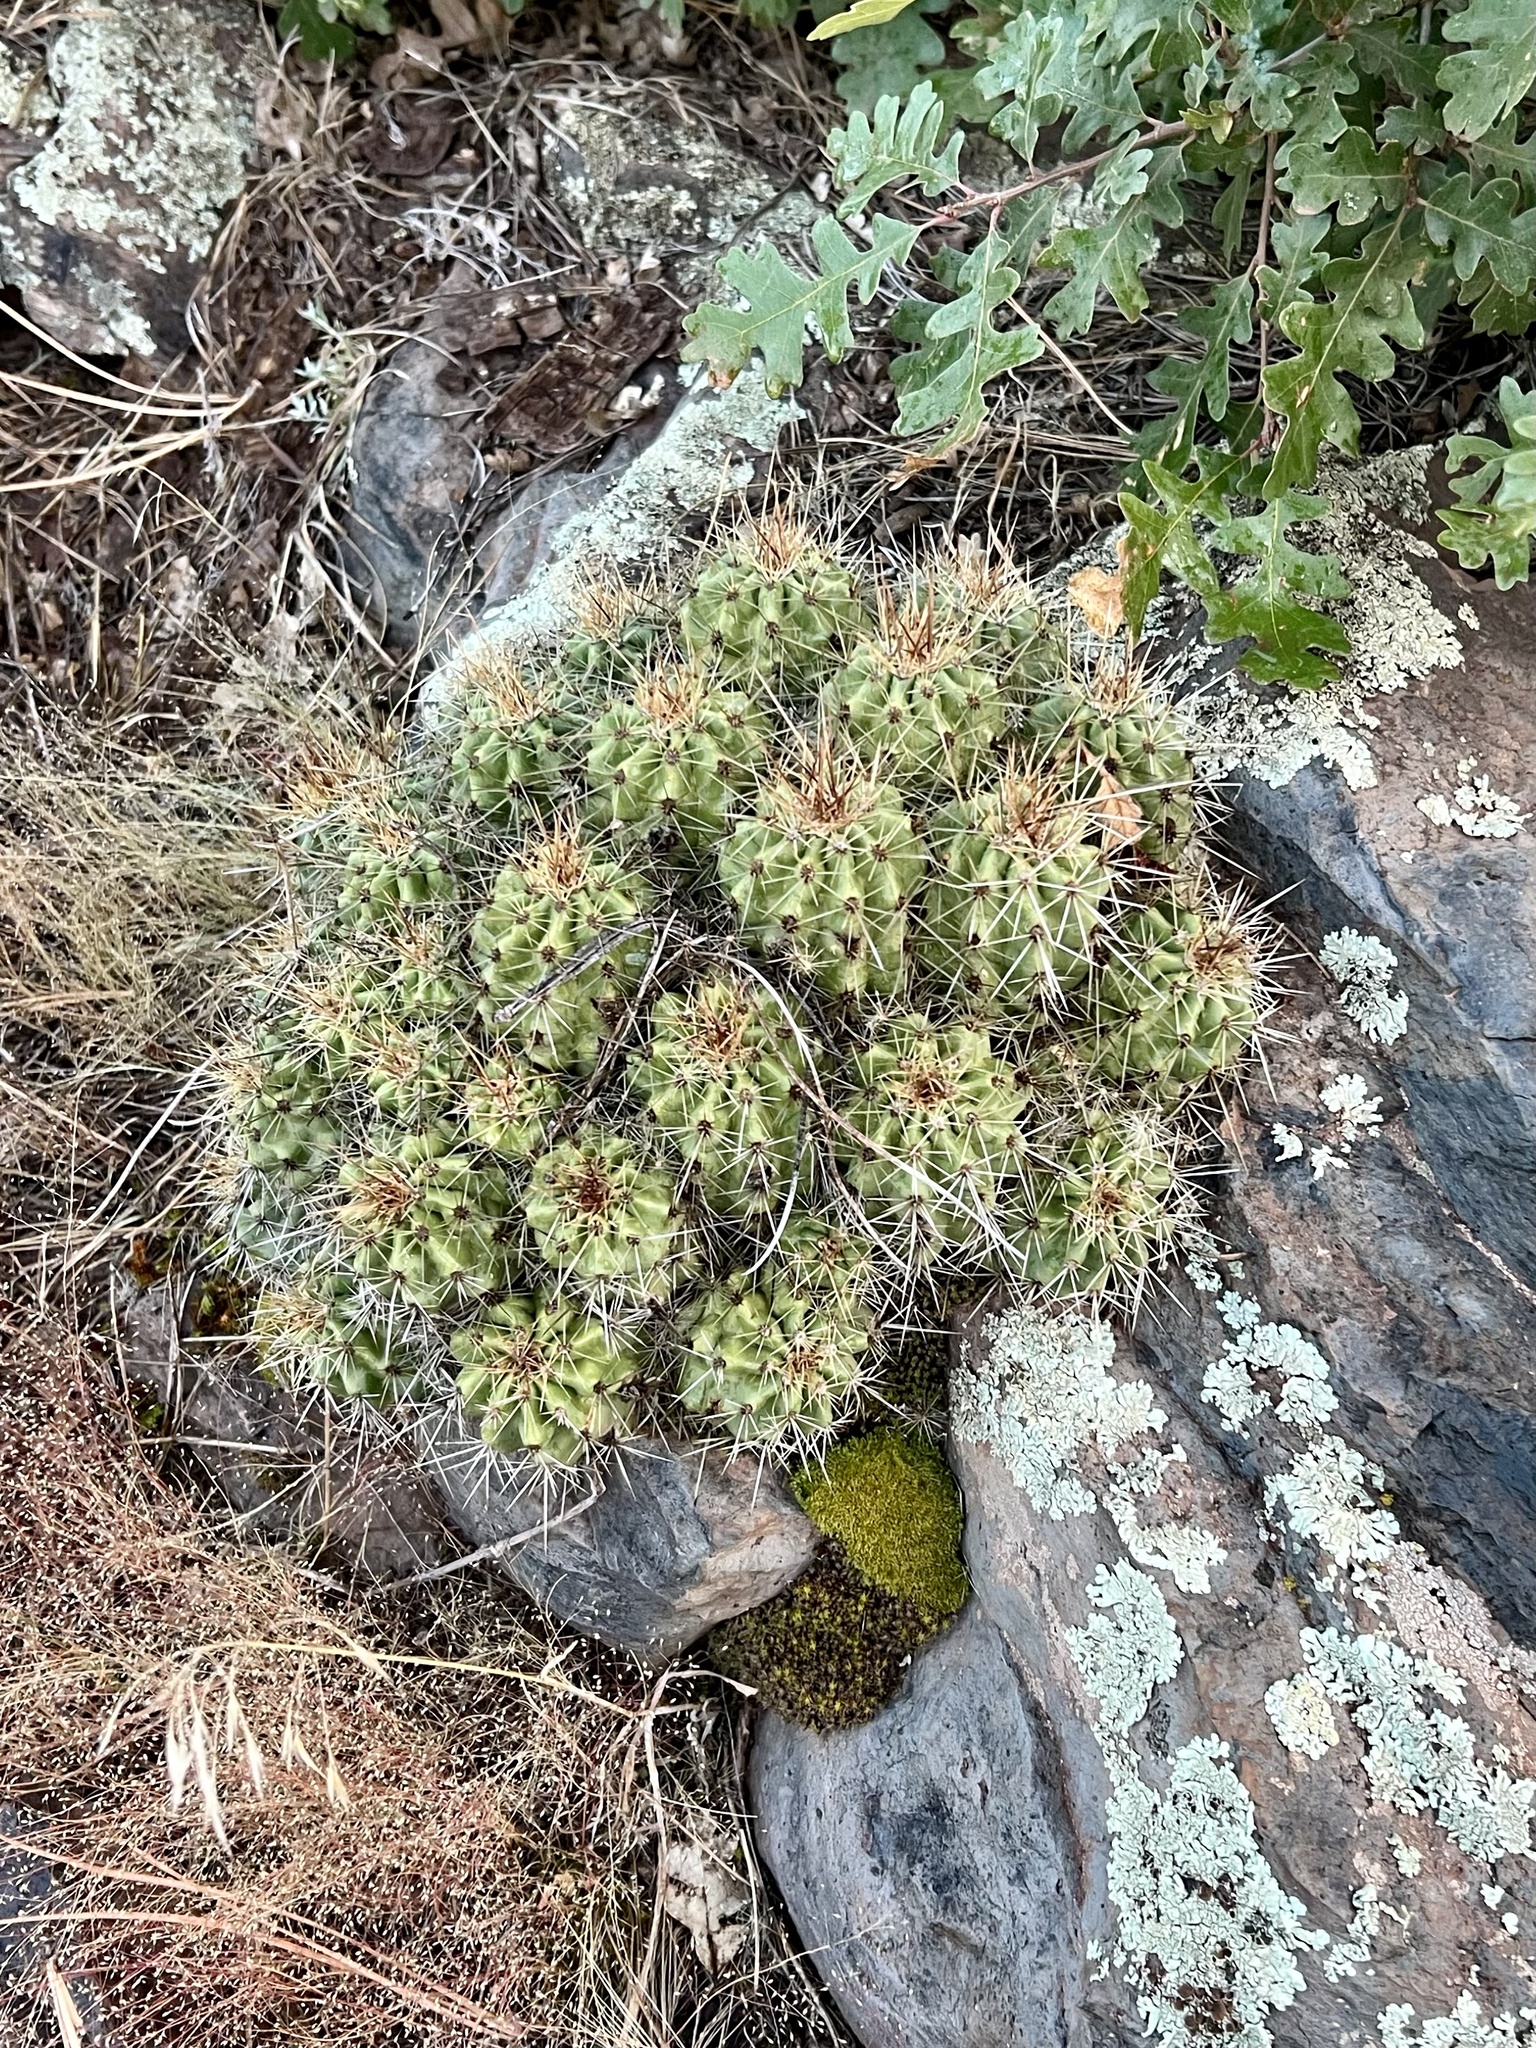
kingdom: Plantae
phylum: Tracheophyta
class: Magnoliopsida
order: Caryophyllales
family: Cactaceae
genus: Echinocereus
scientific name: Echinocereus bakeri
